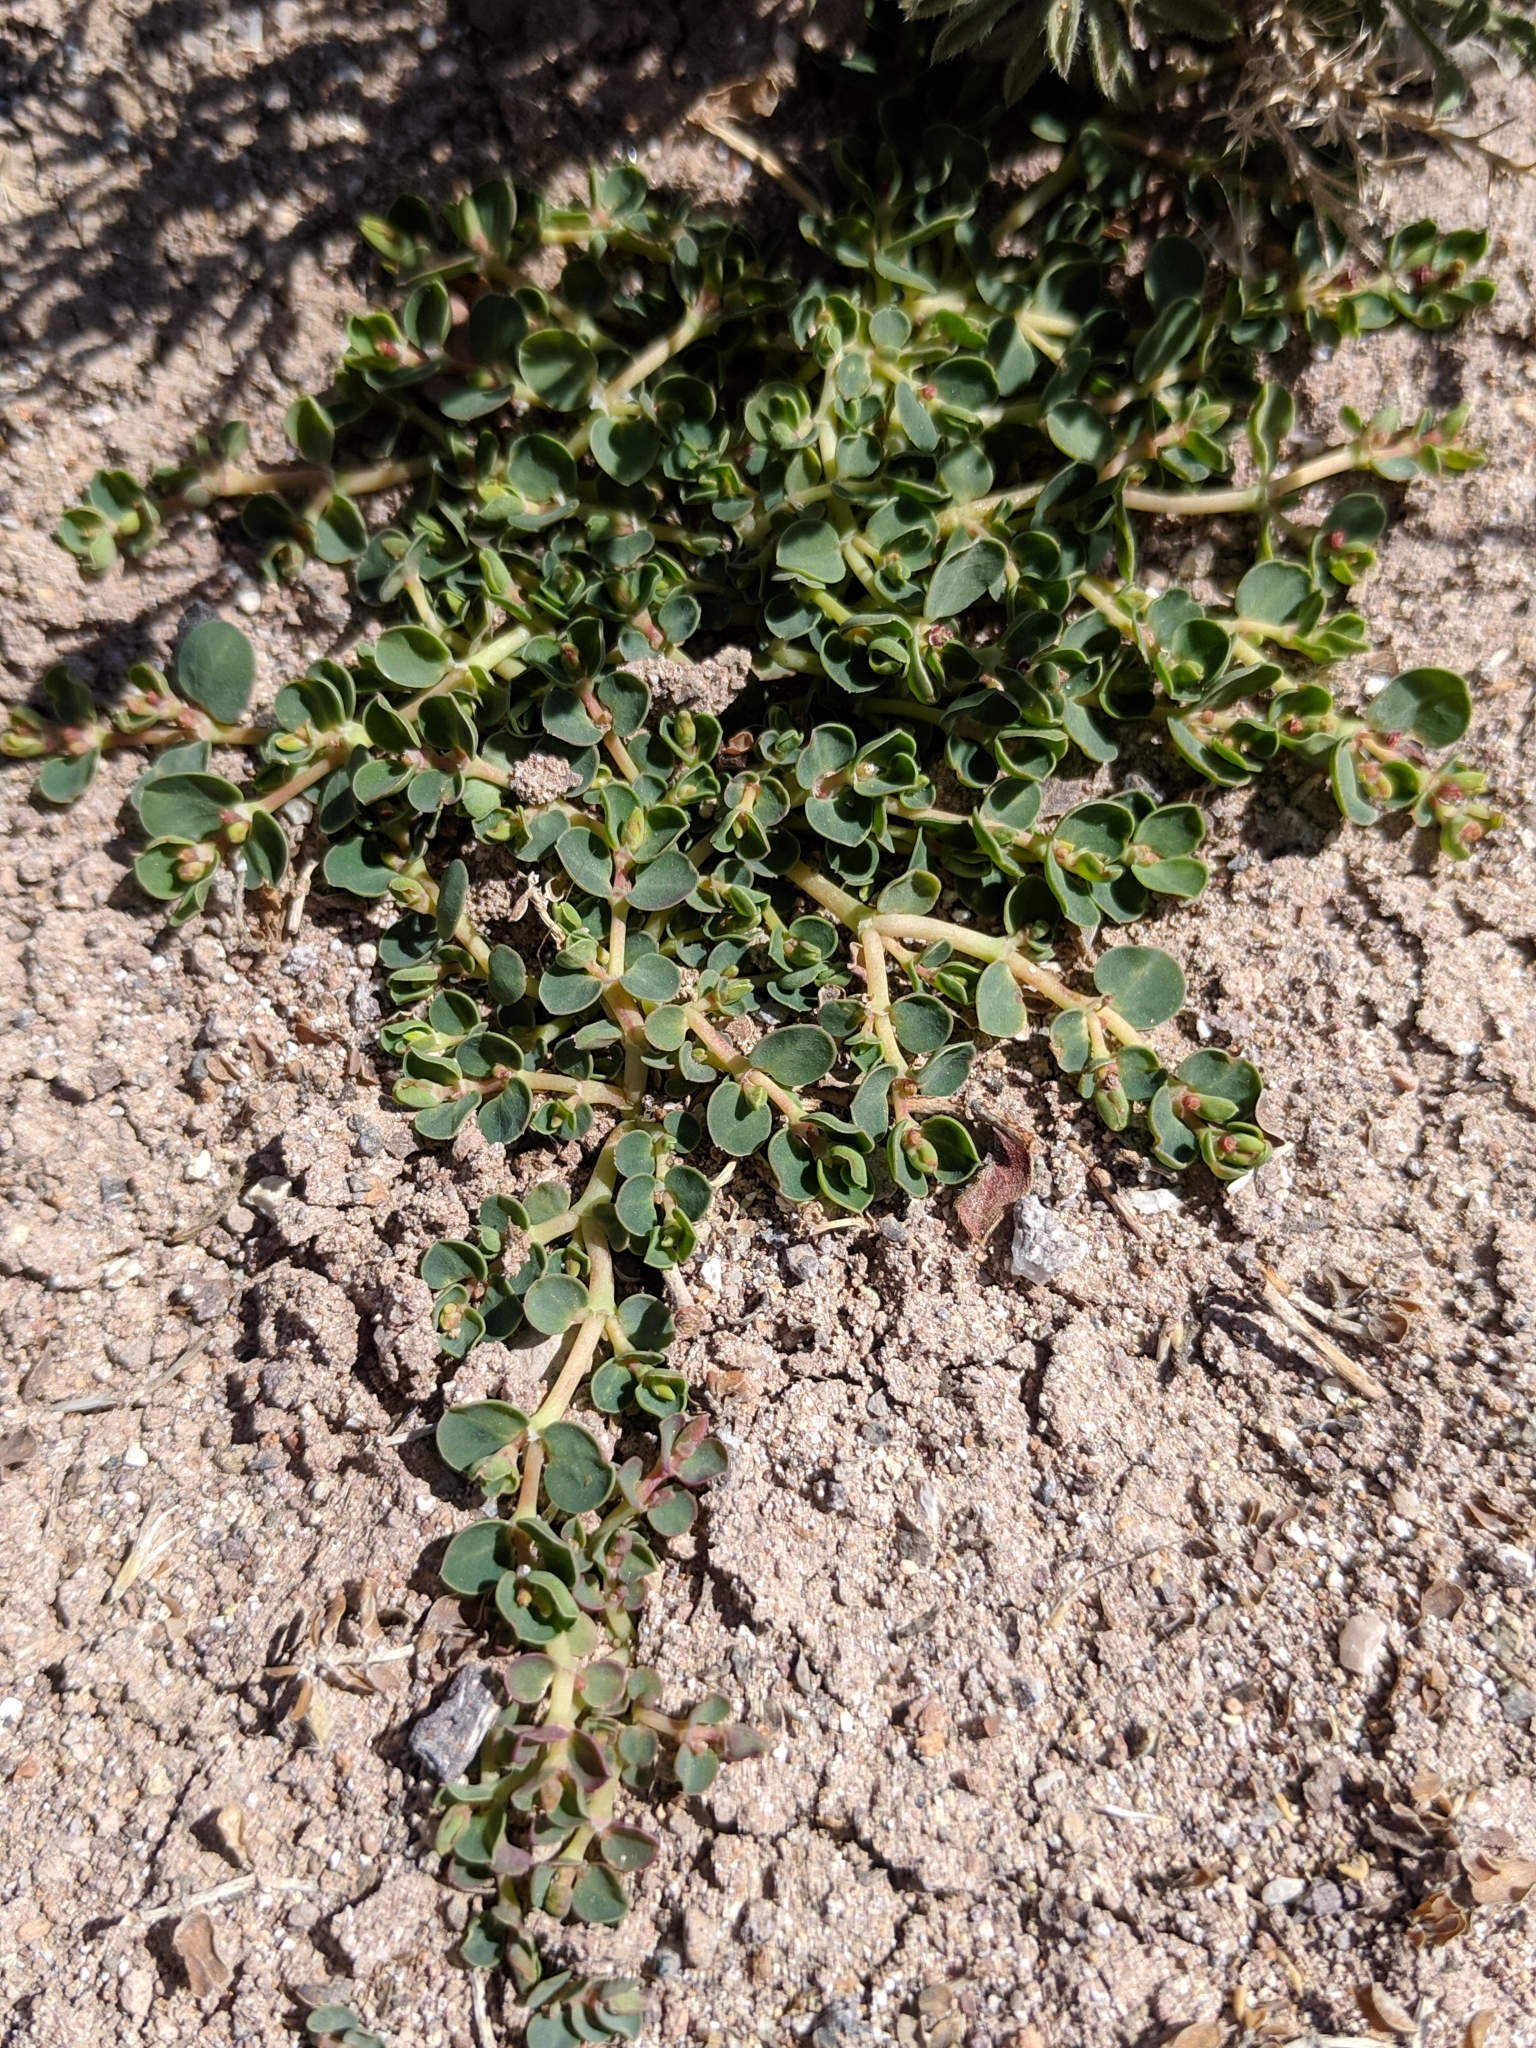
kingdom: Plantae
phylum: Tracheophyta
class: Magnoliopsida
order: Malpighiales
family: Euphorbiaceae
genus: Euphorbia
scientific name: Euphorbia albomarginata
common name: Whitemargin sandmat
